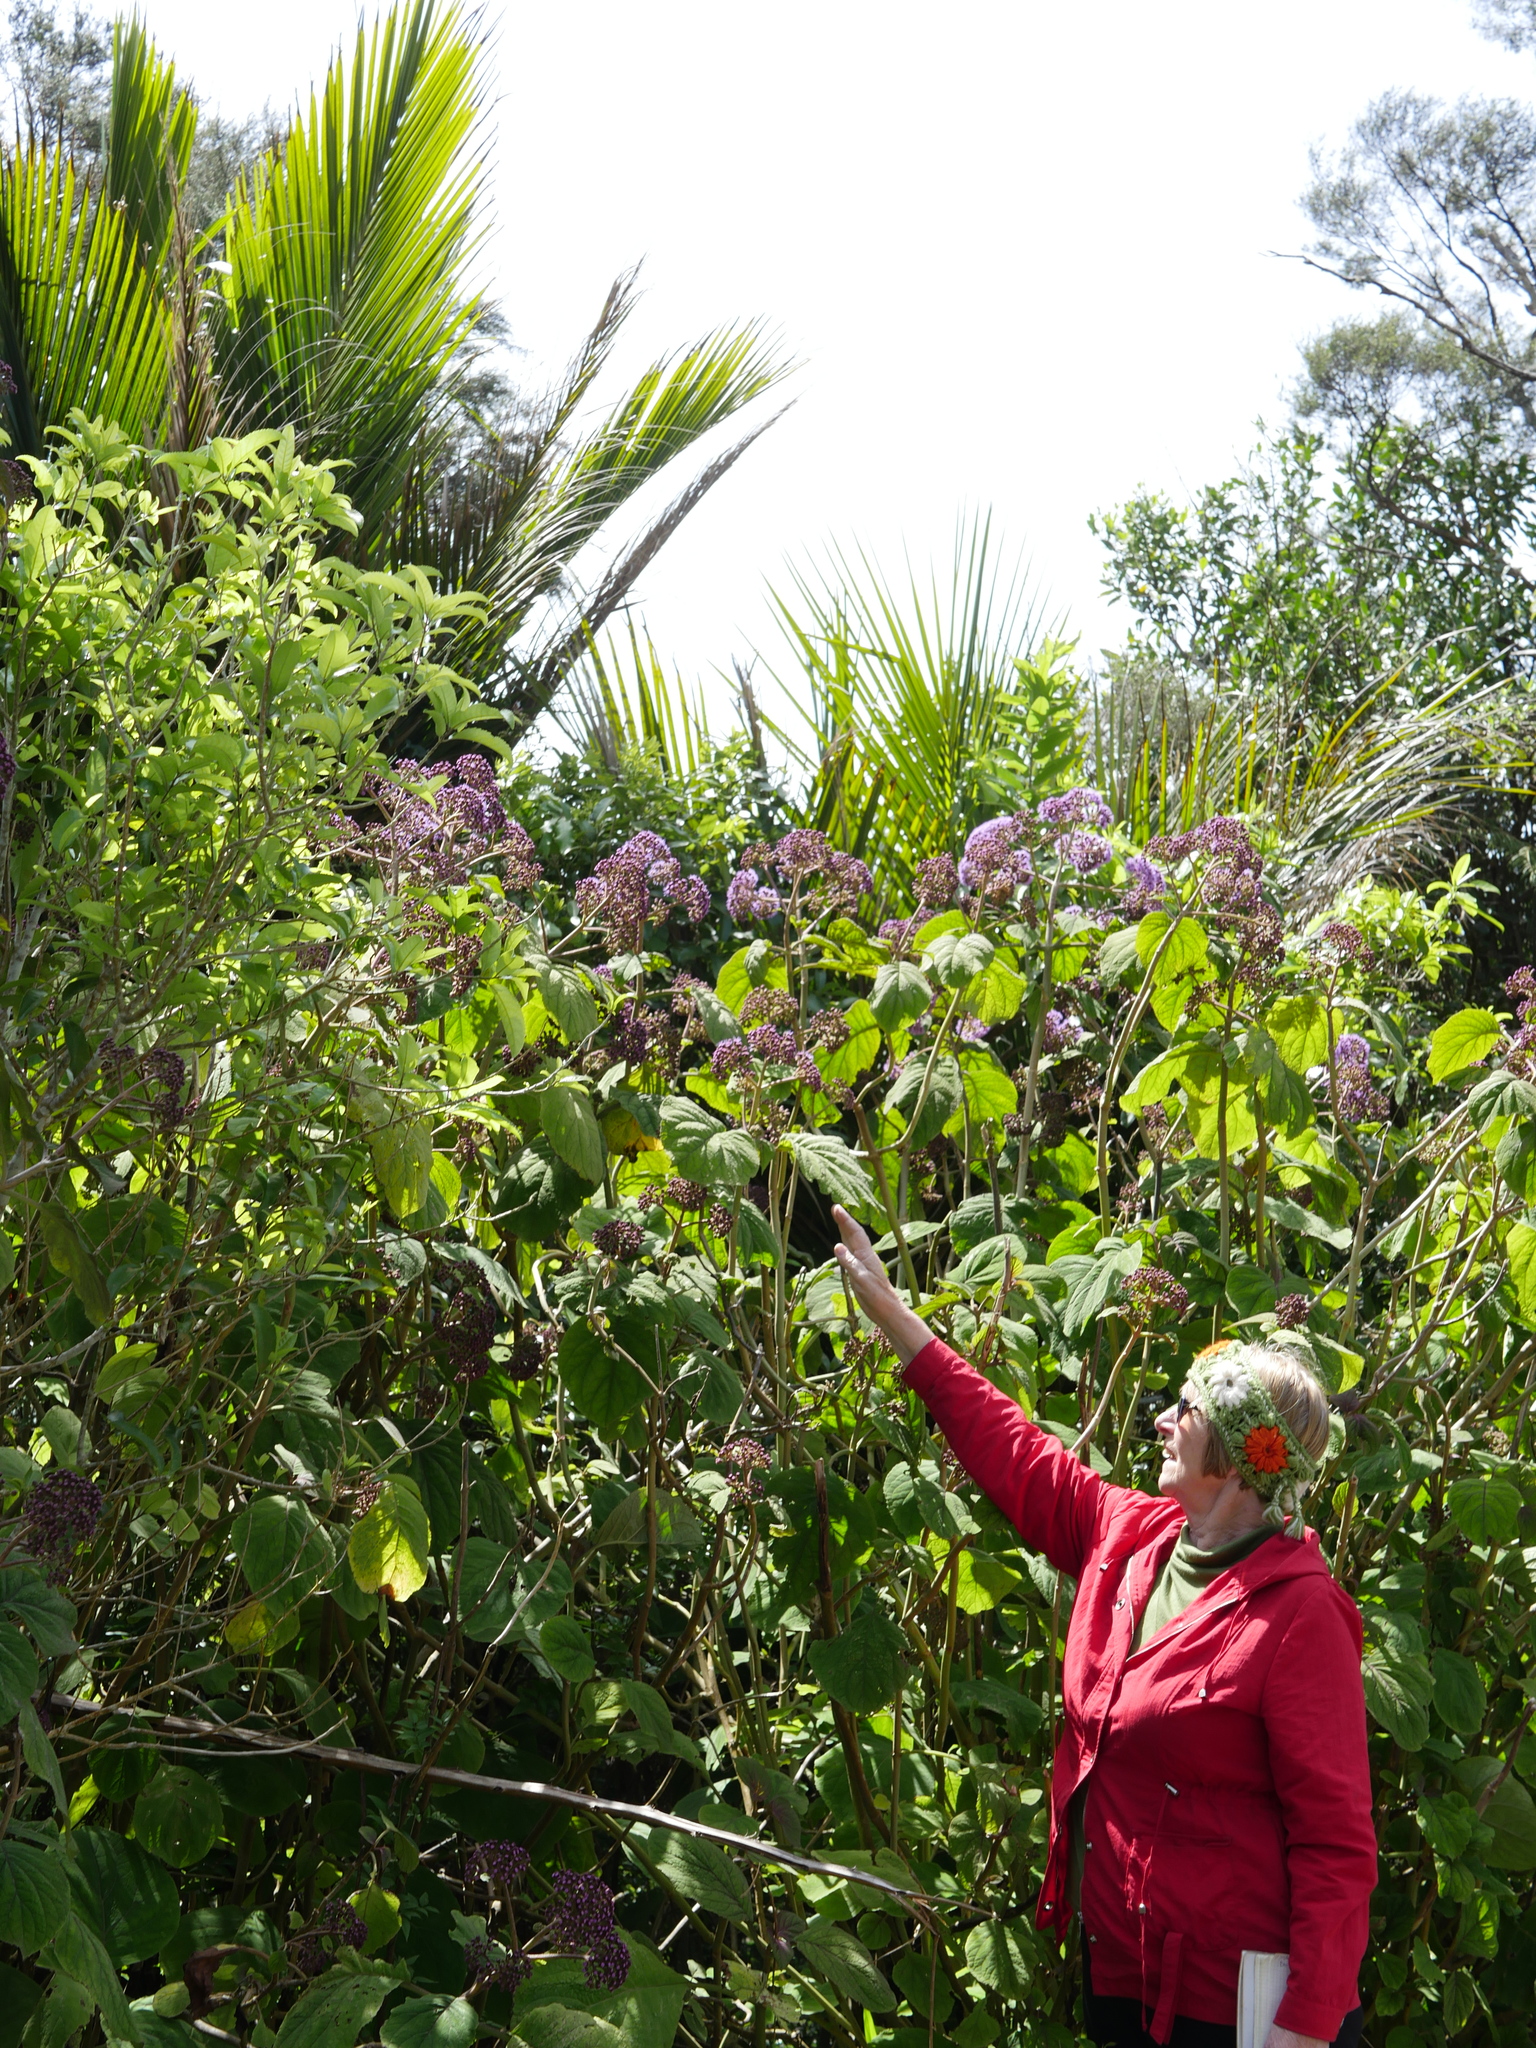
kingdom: Plantae
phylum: Tracheophyta
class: Magnoliopsida
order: Asterales
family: Asteraceae
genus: Bartlettina
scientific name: Bartlettina sordida
